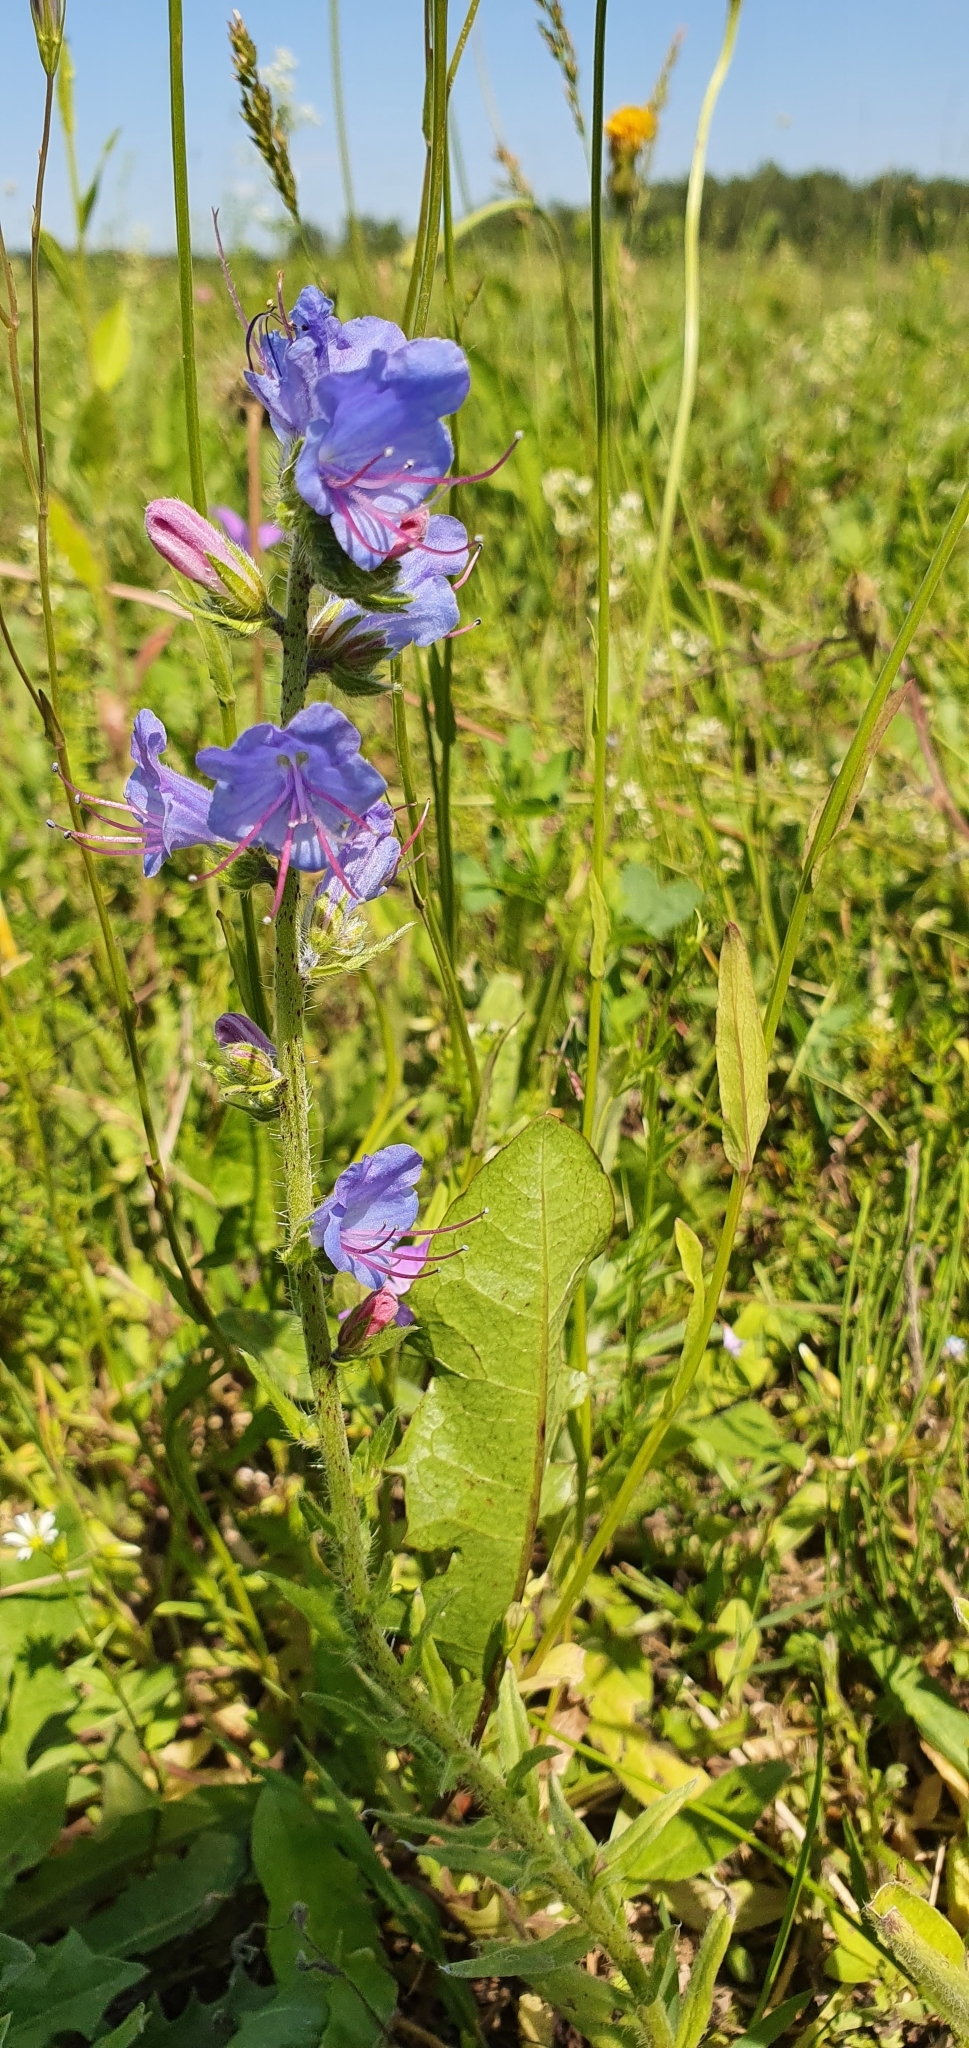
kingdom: Plantae
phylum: Tracheophyta
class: Magnoliopsida
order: Boraginales
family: Boraginaceae
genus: Echium
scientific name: Echium vulgare
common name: Common viper's bugloss
